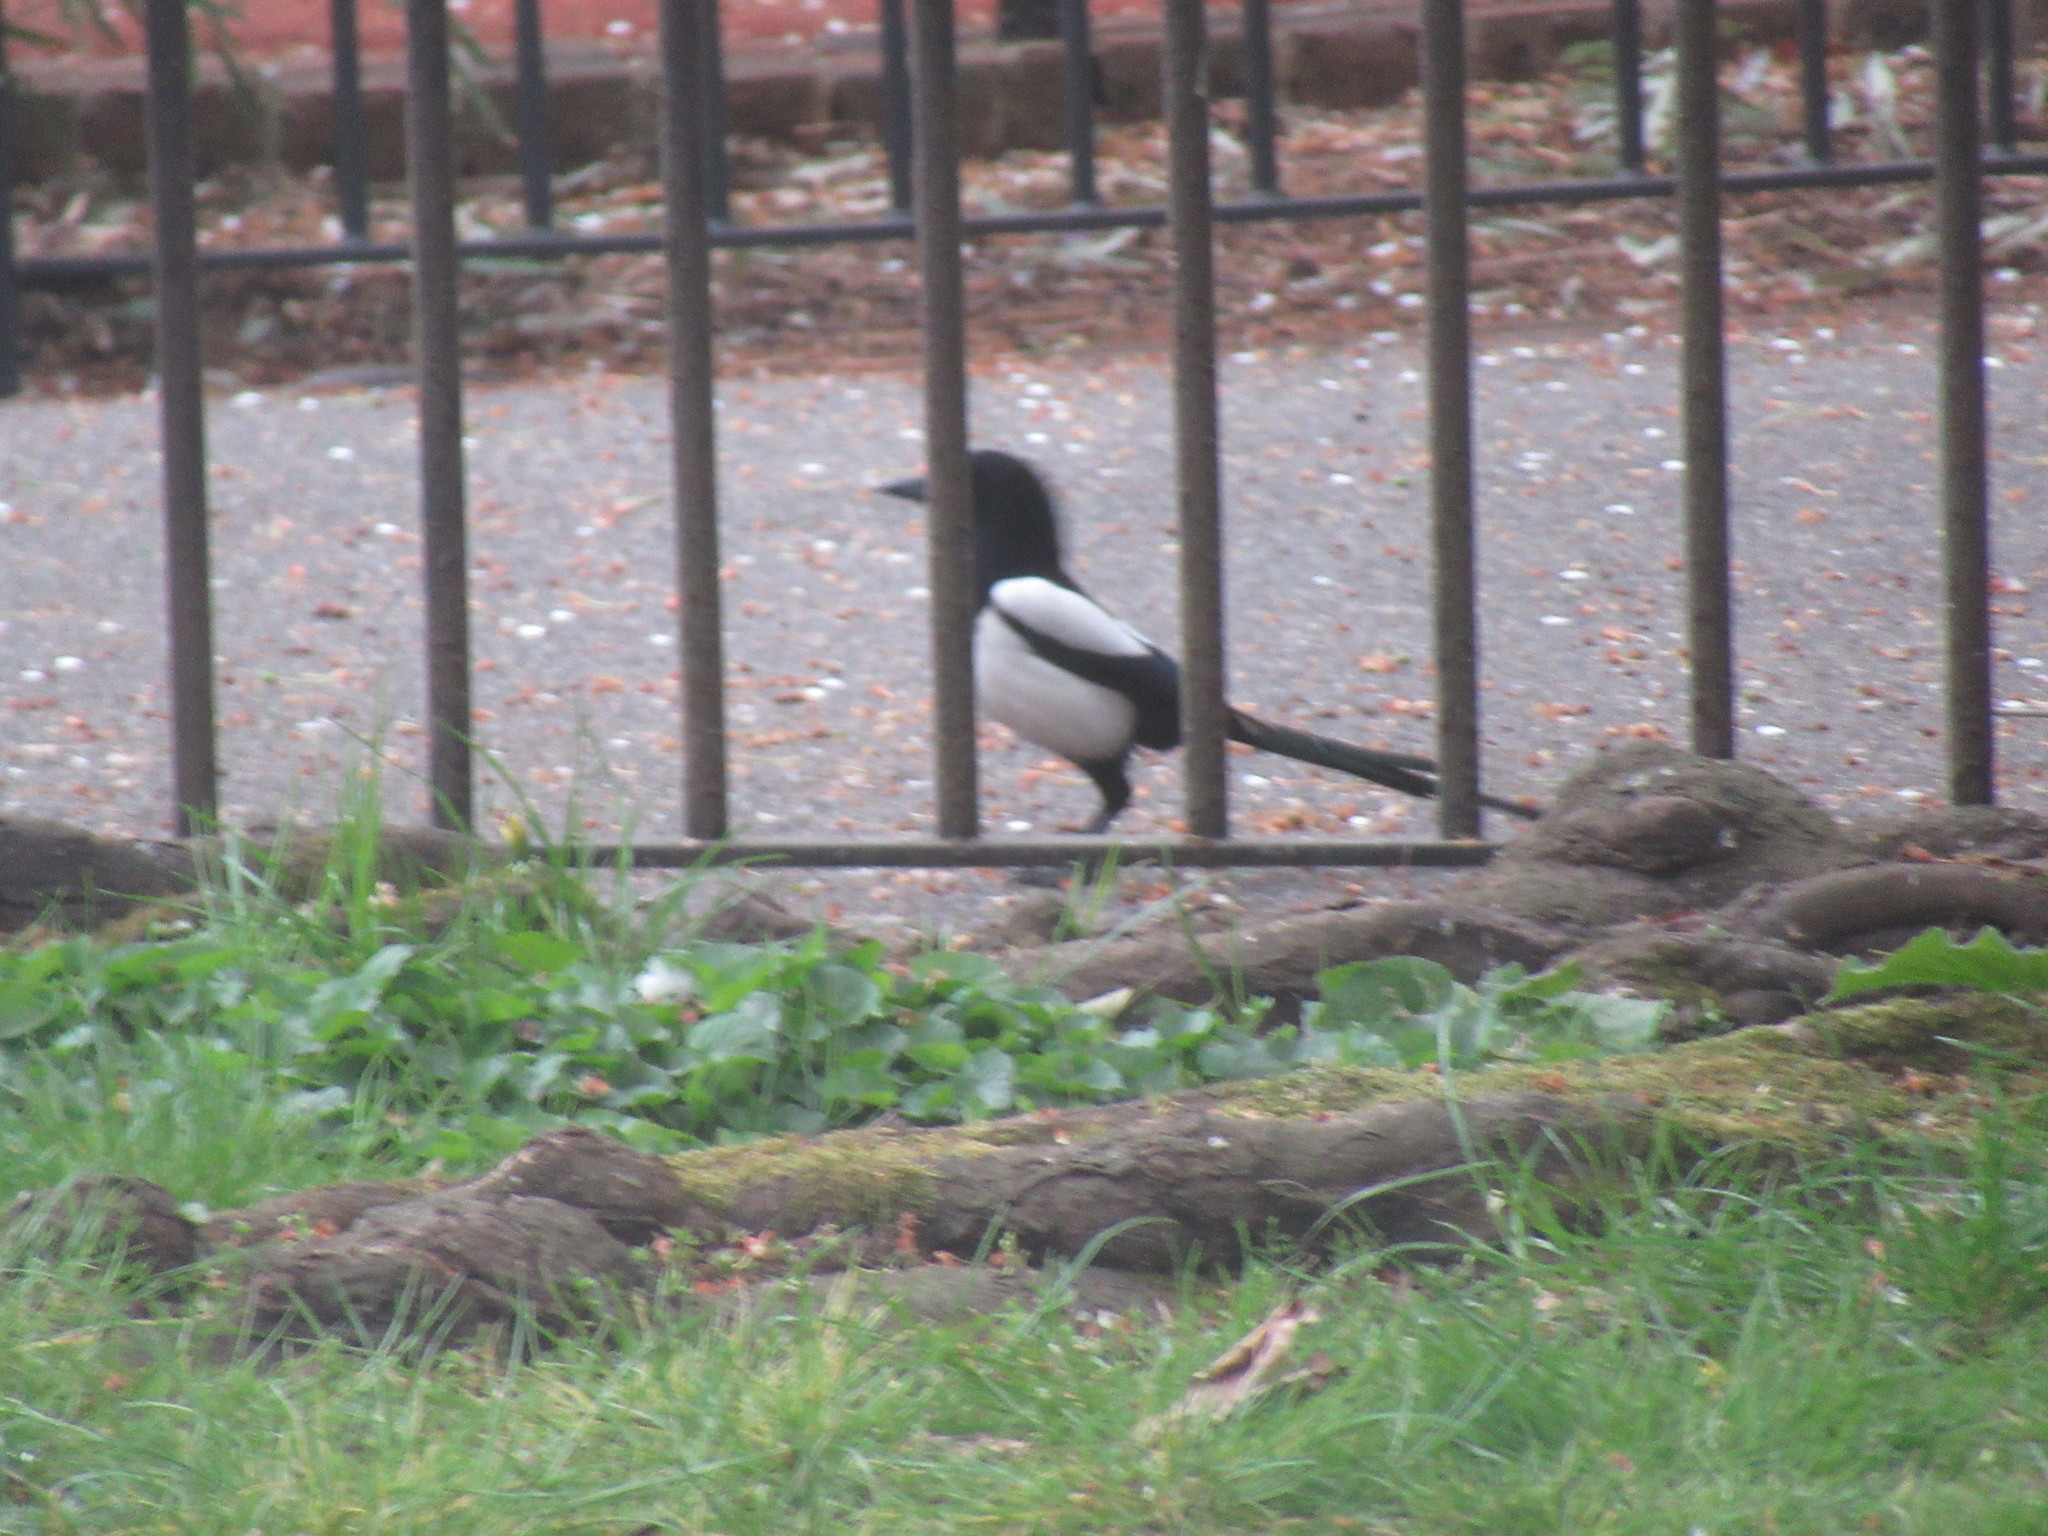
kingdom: Animalia
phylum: Chordata
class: Aves
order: Passeriformes
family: Corvidae
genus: Pica
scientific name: Pica pica
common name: Eurasian magpie
